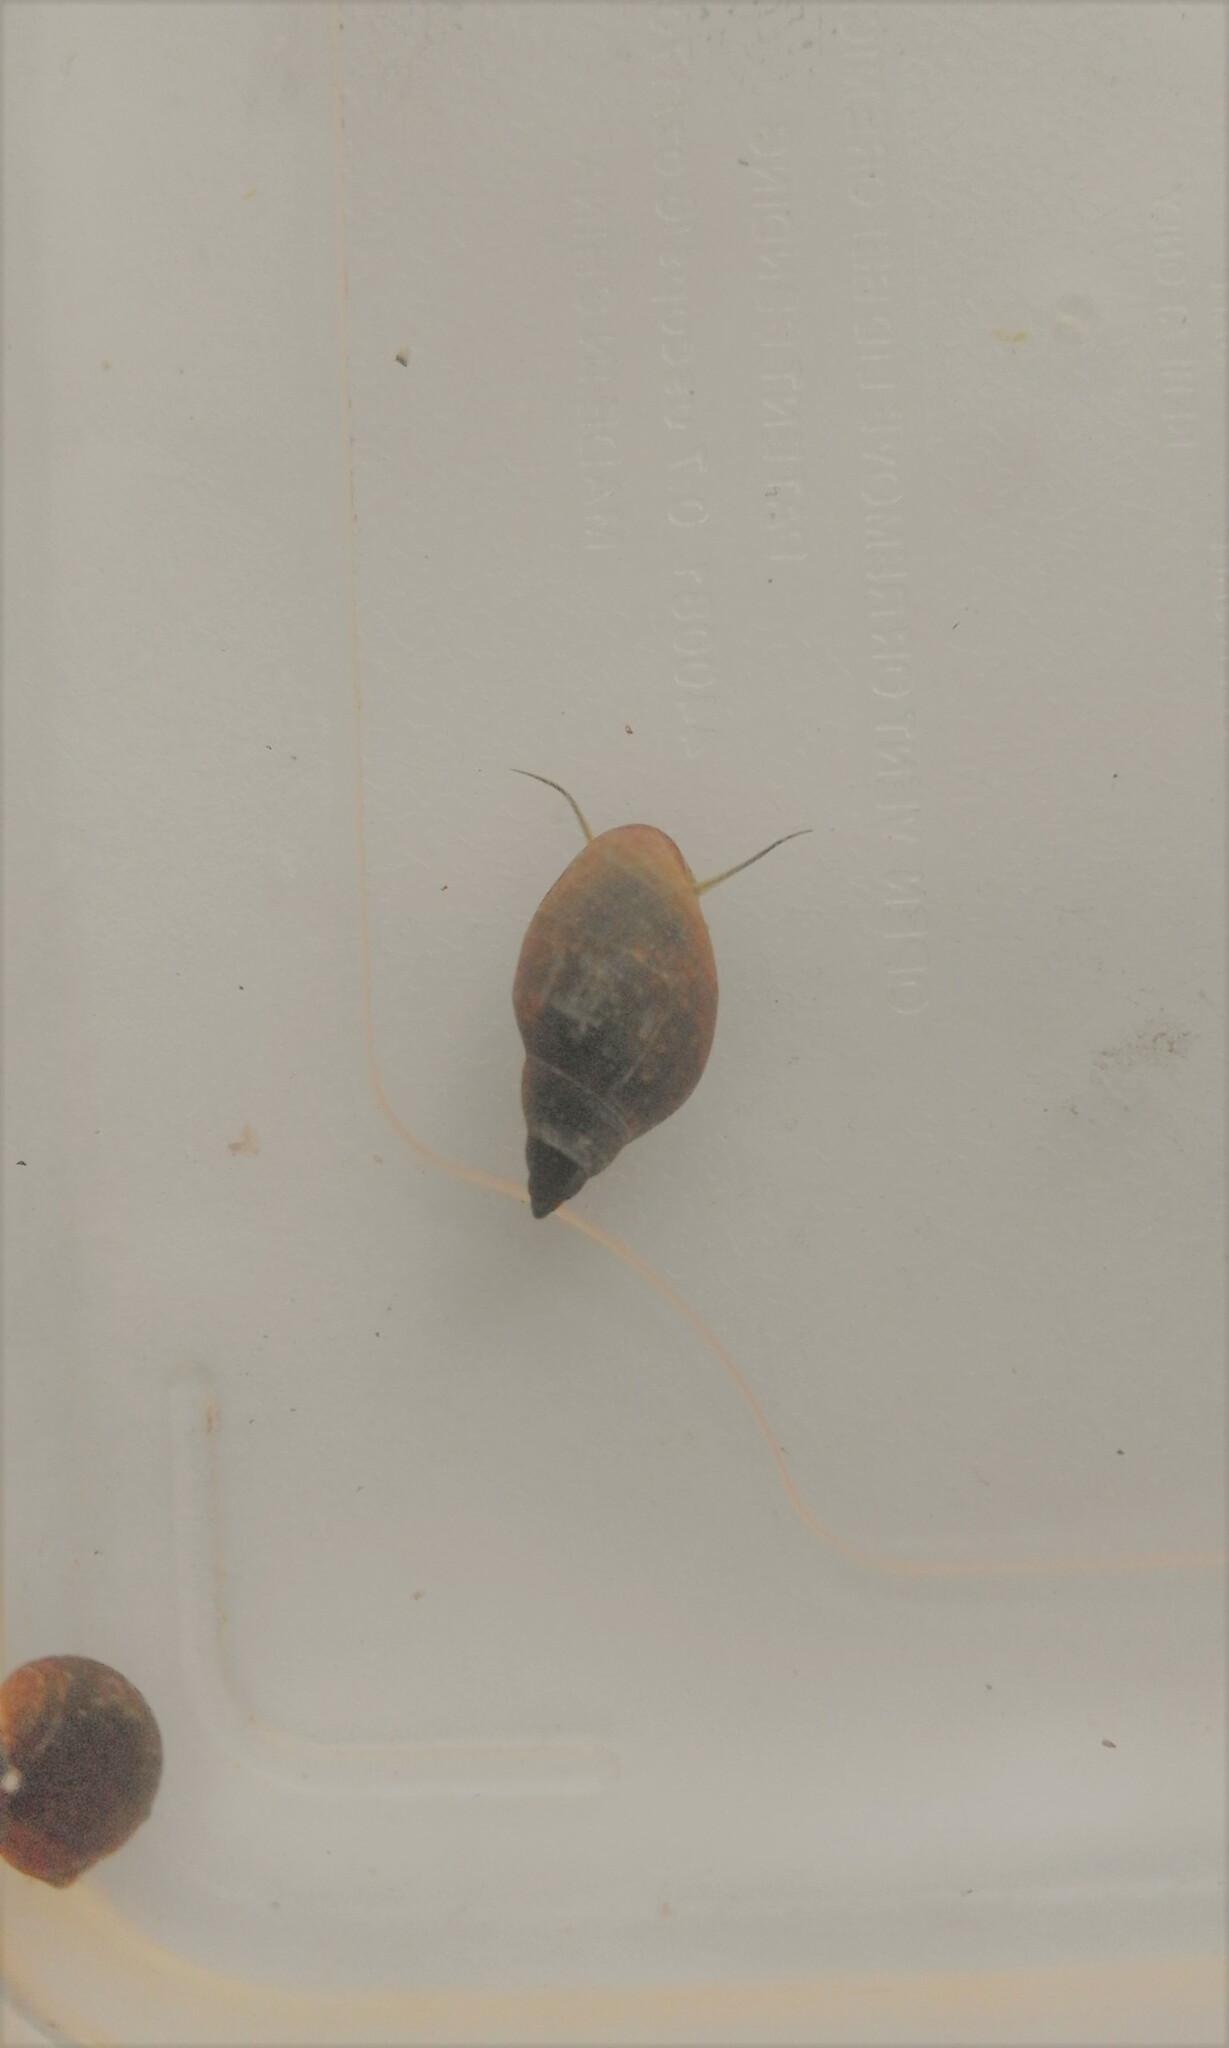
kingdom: Animalia
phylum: Mollusca
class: Gastropoda
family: Physidae
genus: Physella
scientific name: Physella acuta
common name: European physa
